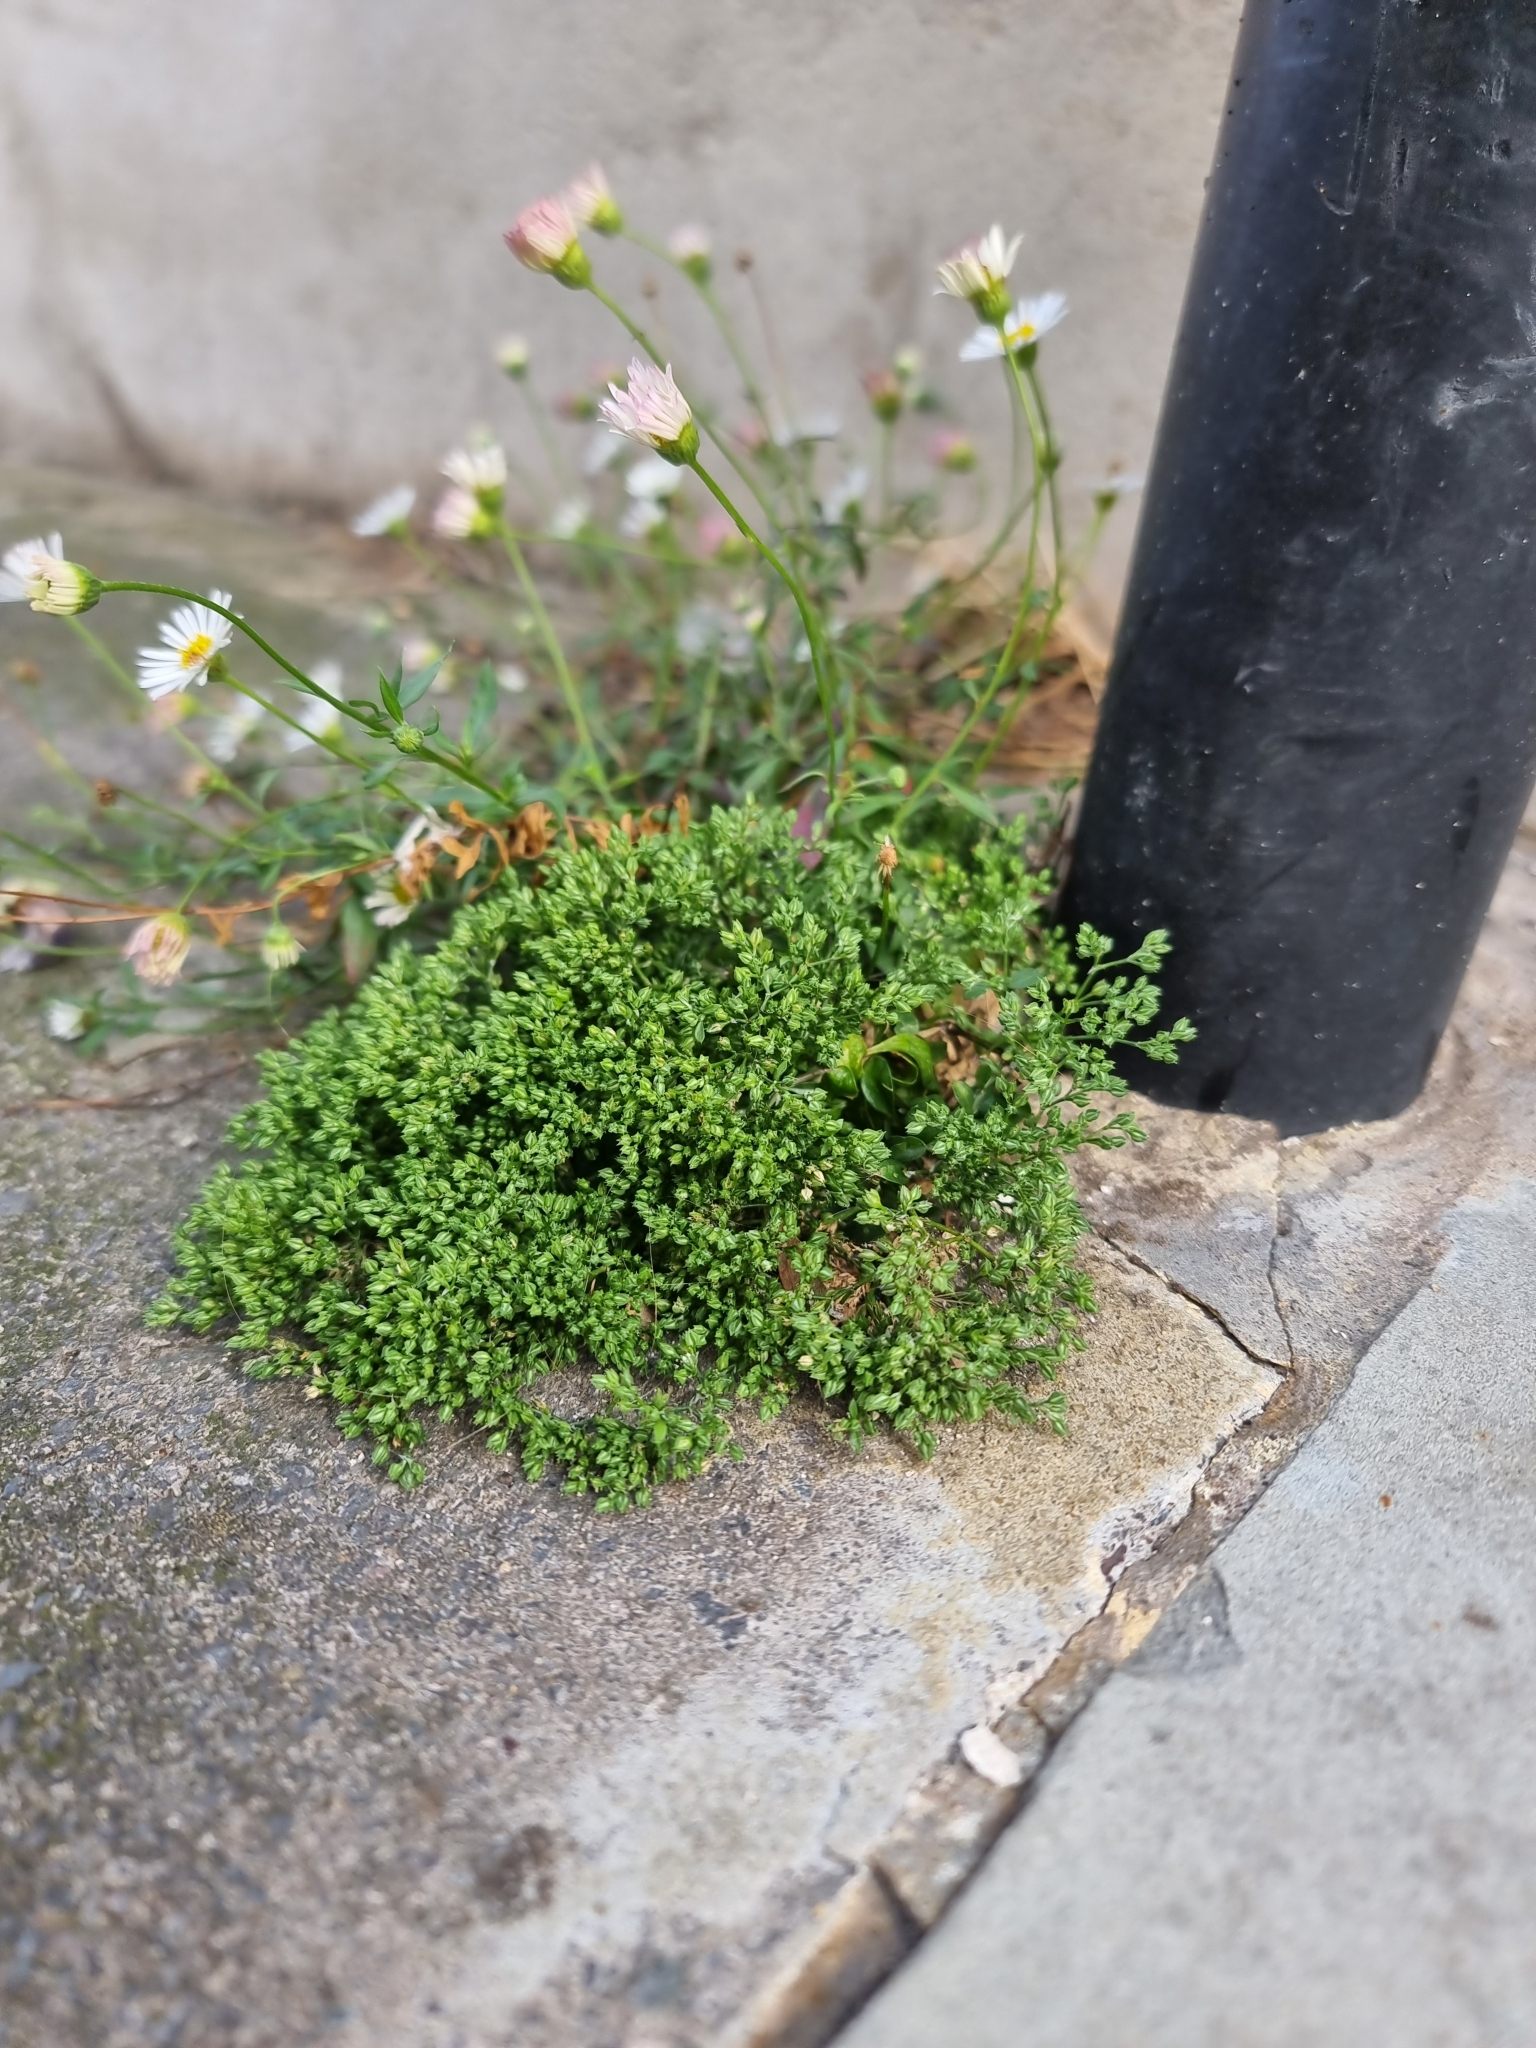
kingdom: Plantae
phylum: Tracheophyta
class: Magnoliopsida
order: Caryophyllales
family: Caryophyllaceae
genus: Polycarpon
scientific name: Polycarpon tetraphyllum
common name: Four-leaved all-seed
